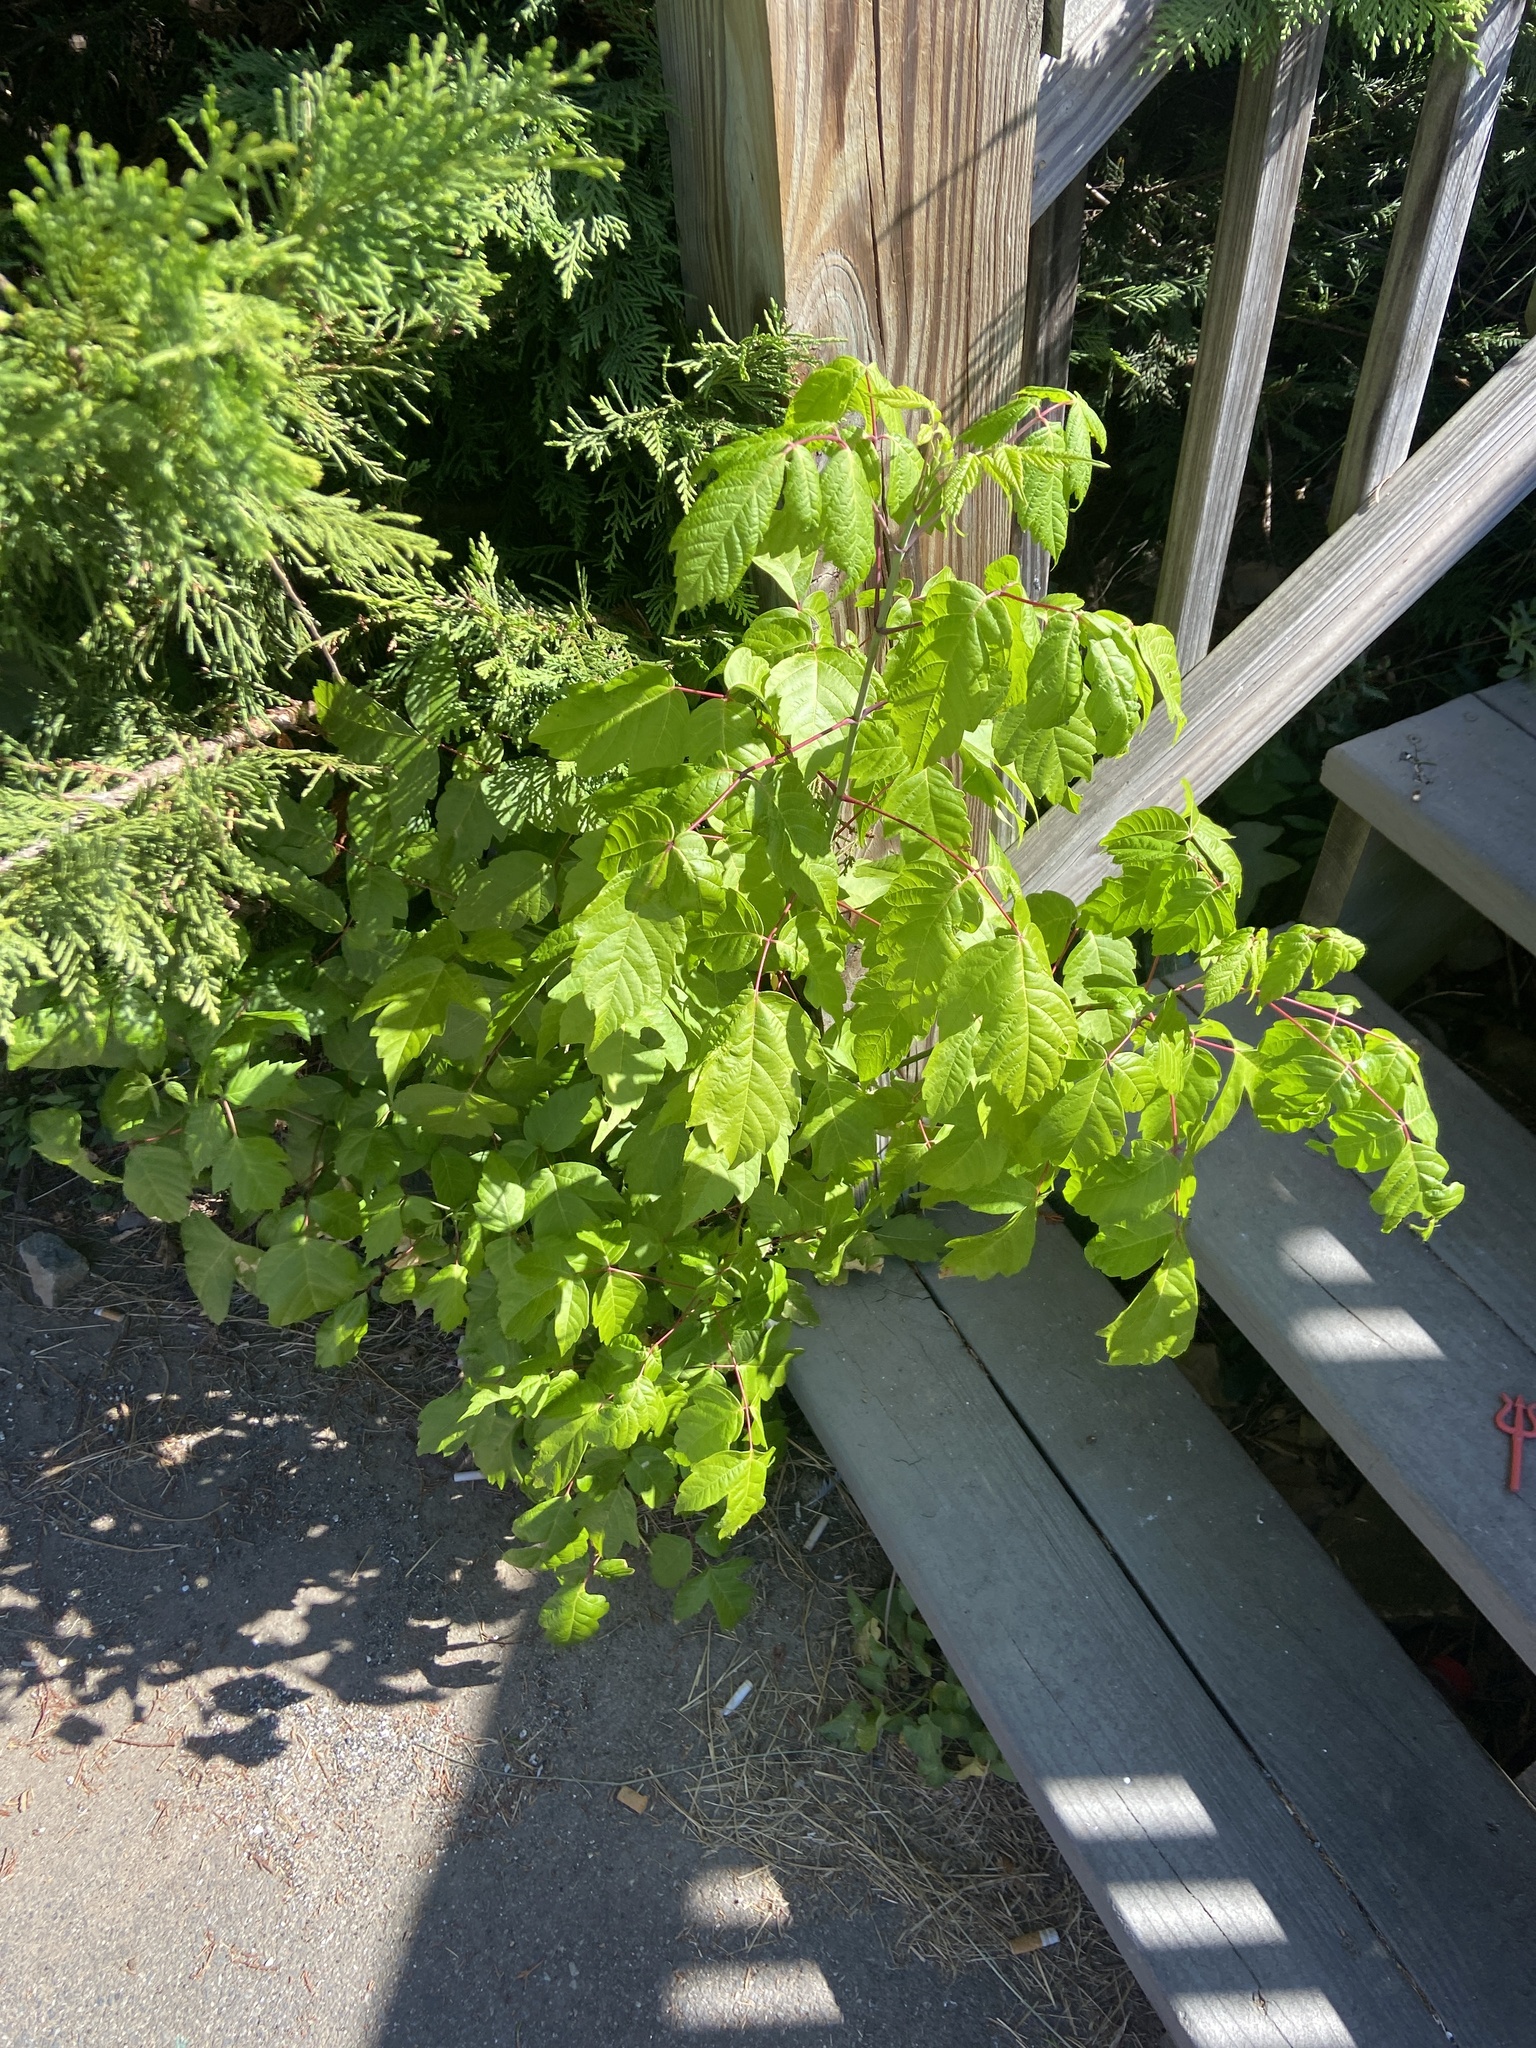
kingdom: Plantae
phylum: Tracheophyta
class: Magnoliopsida
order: Sapindales
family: Sapindaceae
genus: Acer
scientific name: Acer negundo
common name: Ashleaf maple
